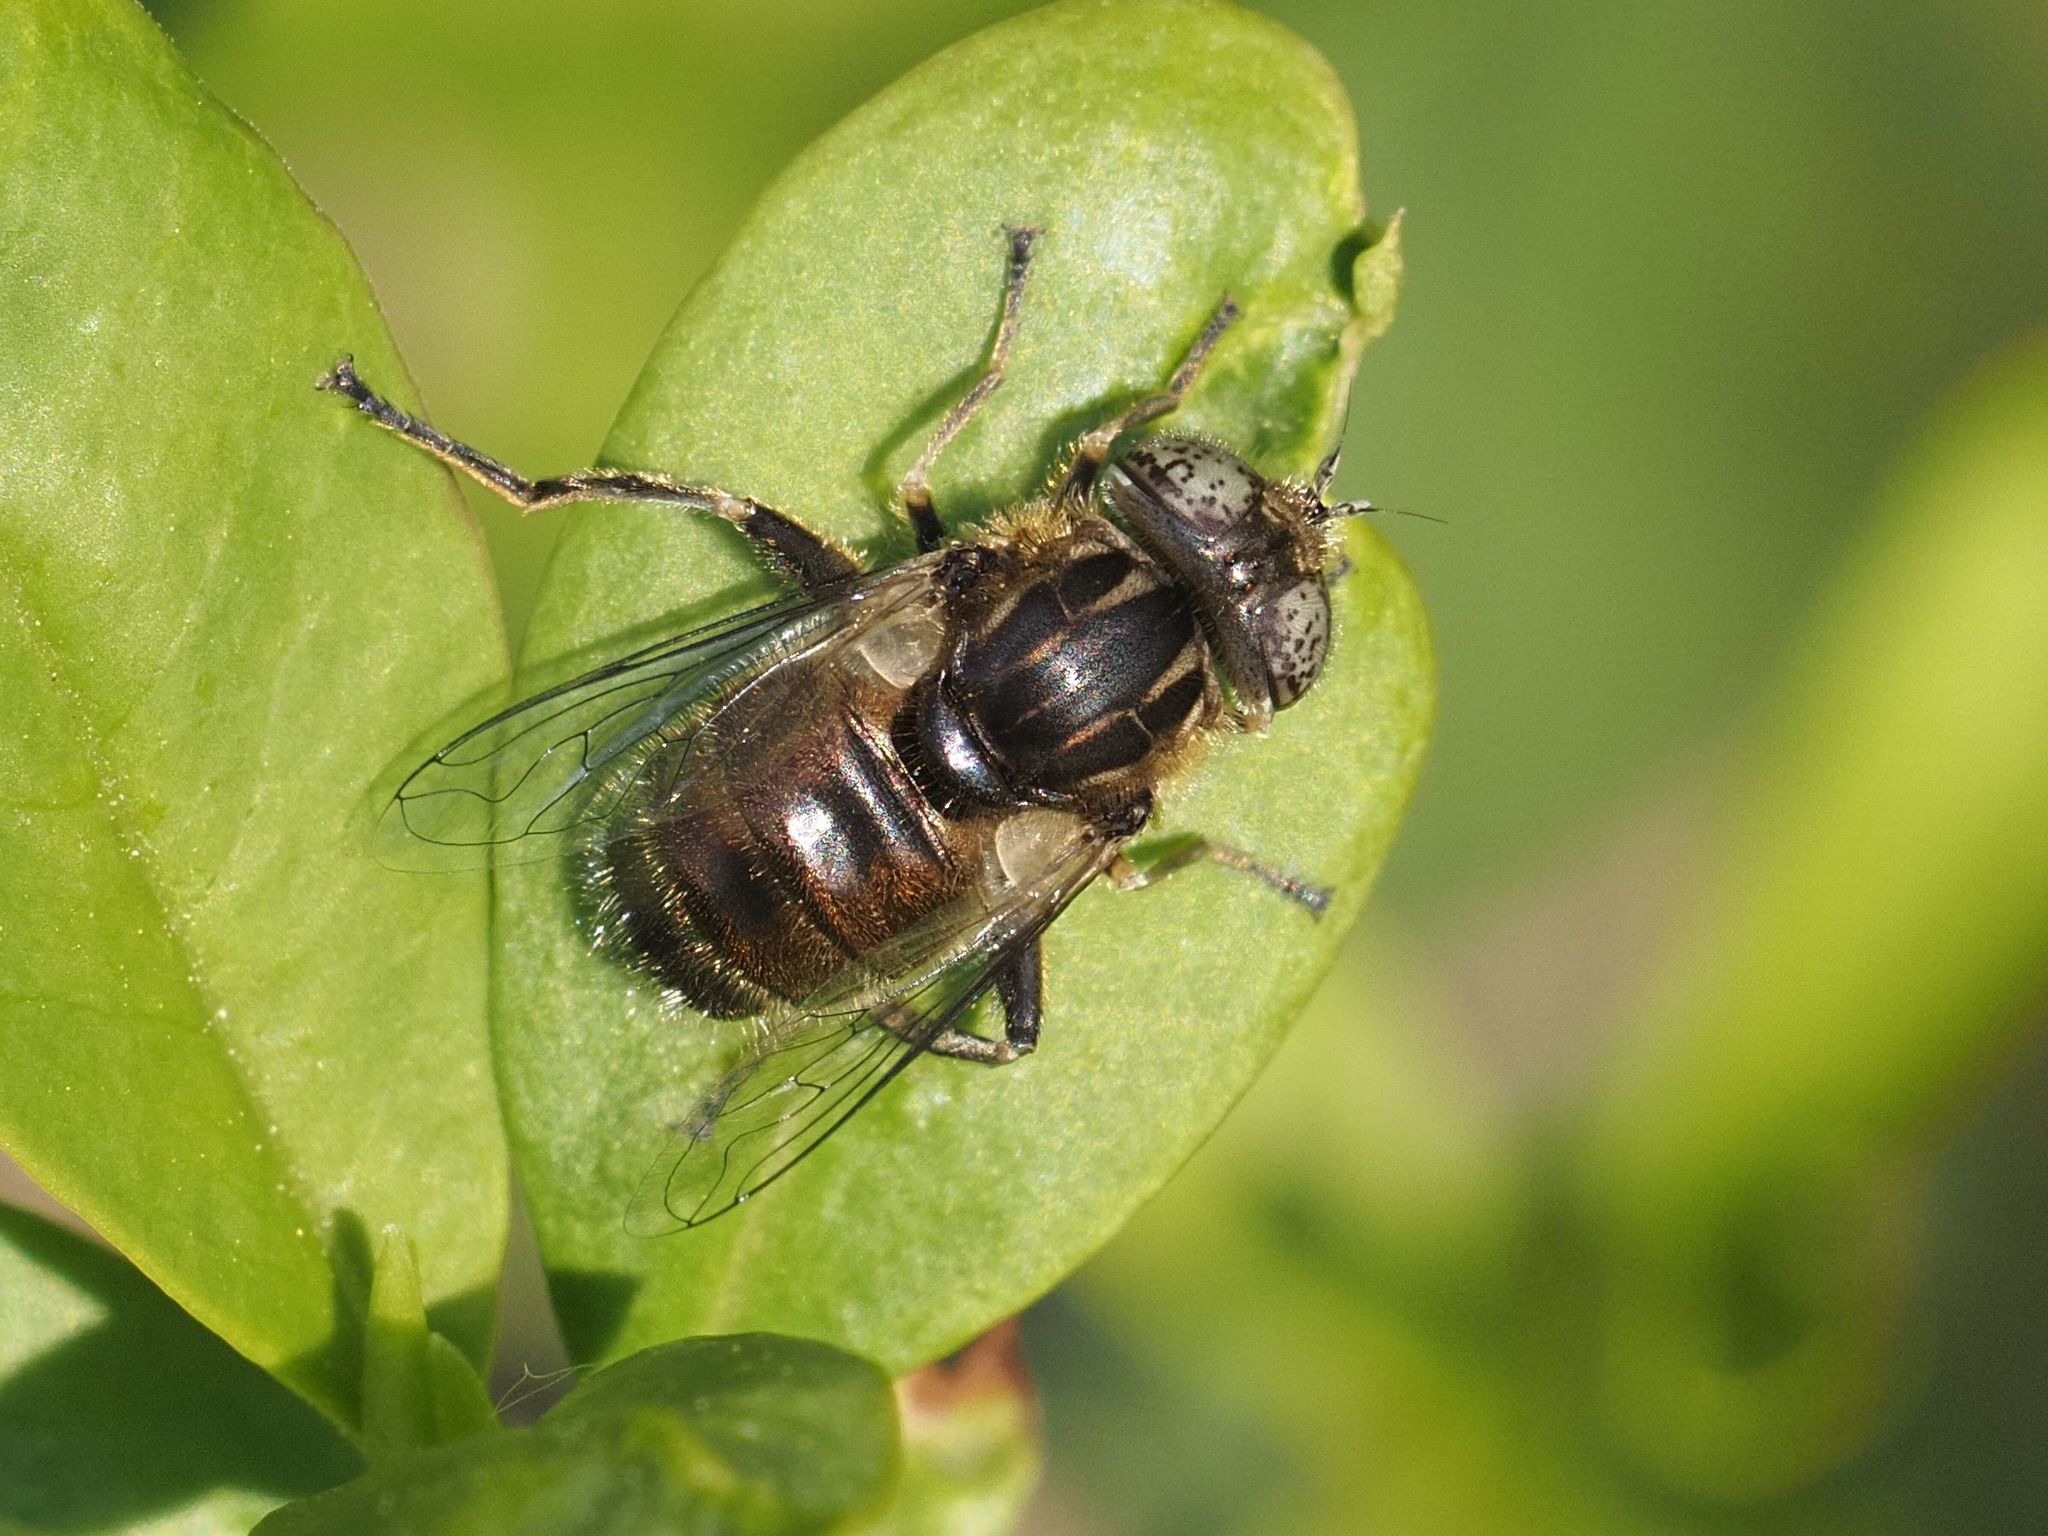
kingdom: Animalia
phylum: Arthropoda
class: Insecta
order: Diptera
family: Syrphidae
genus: Eristalinus
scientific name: Eristalinus sepulchralis
